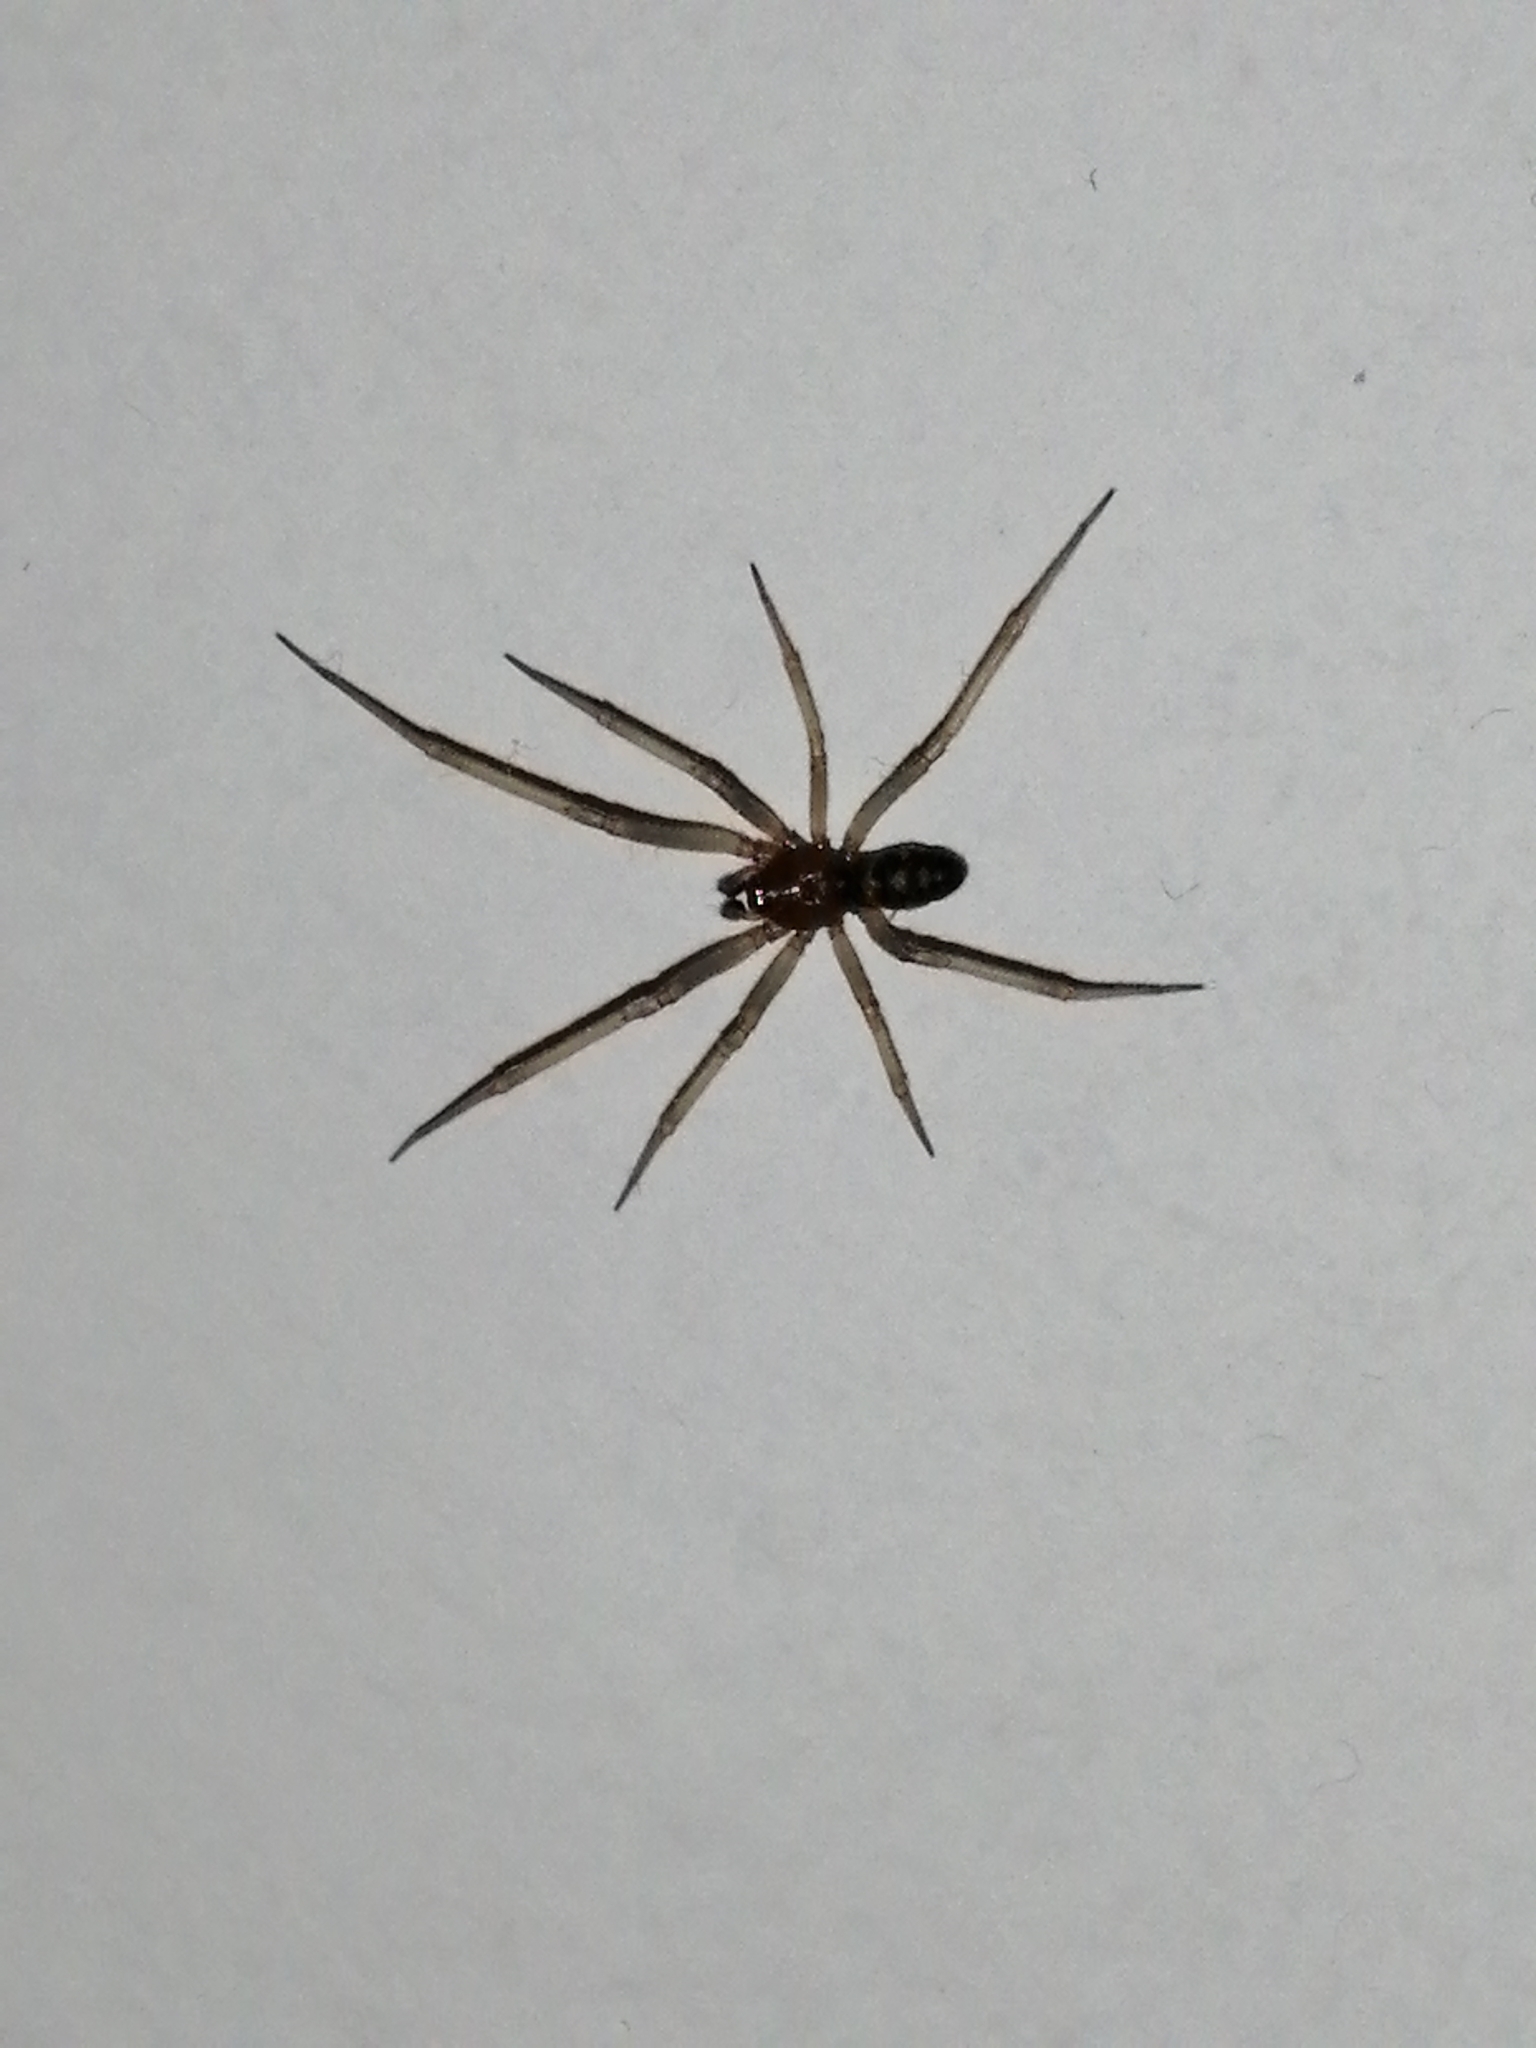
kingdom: Animalia
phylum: Arthropoda
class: Arachnida
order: Araneae
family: Theridiidae
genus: Steatoda
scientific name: Steatoda grossa
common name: False black widow
